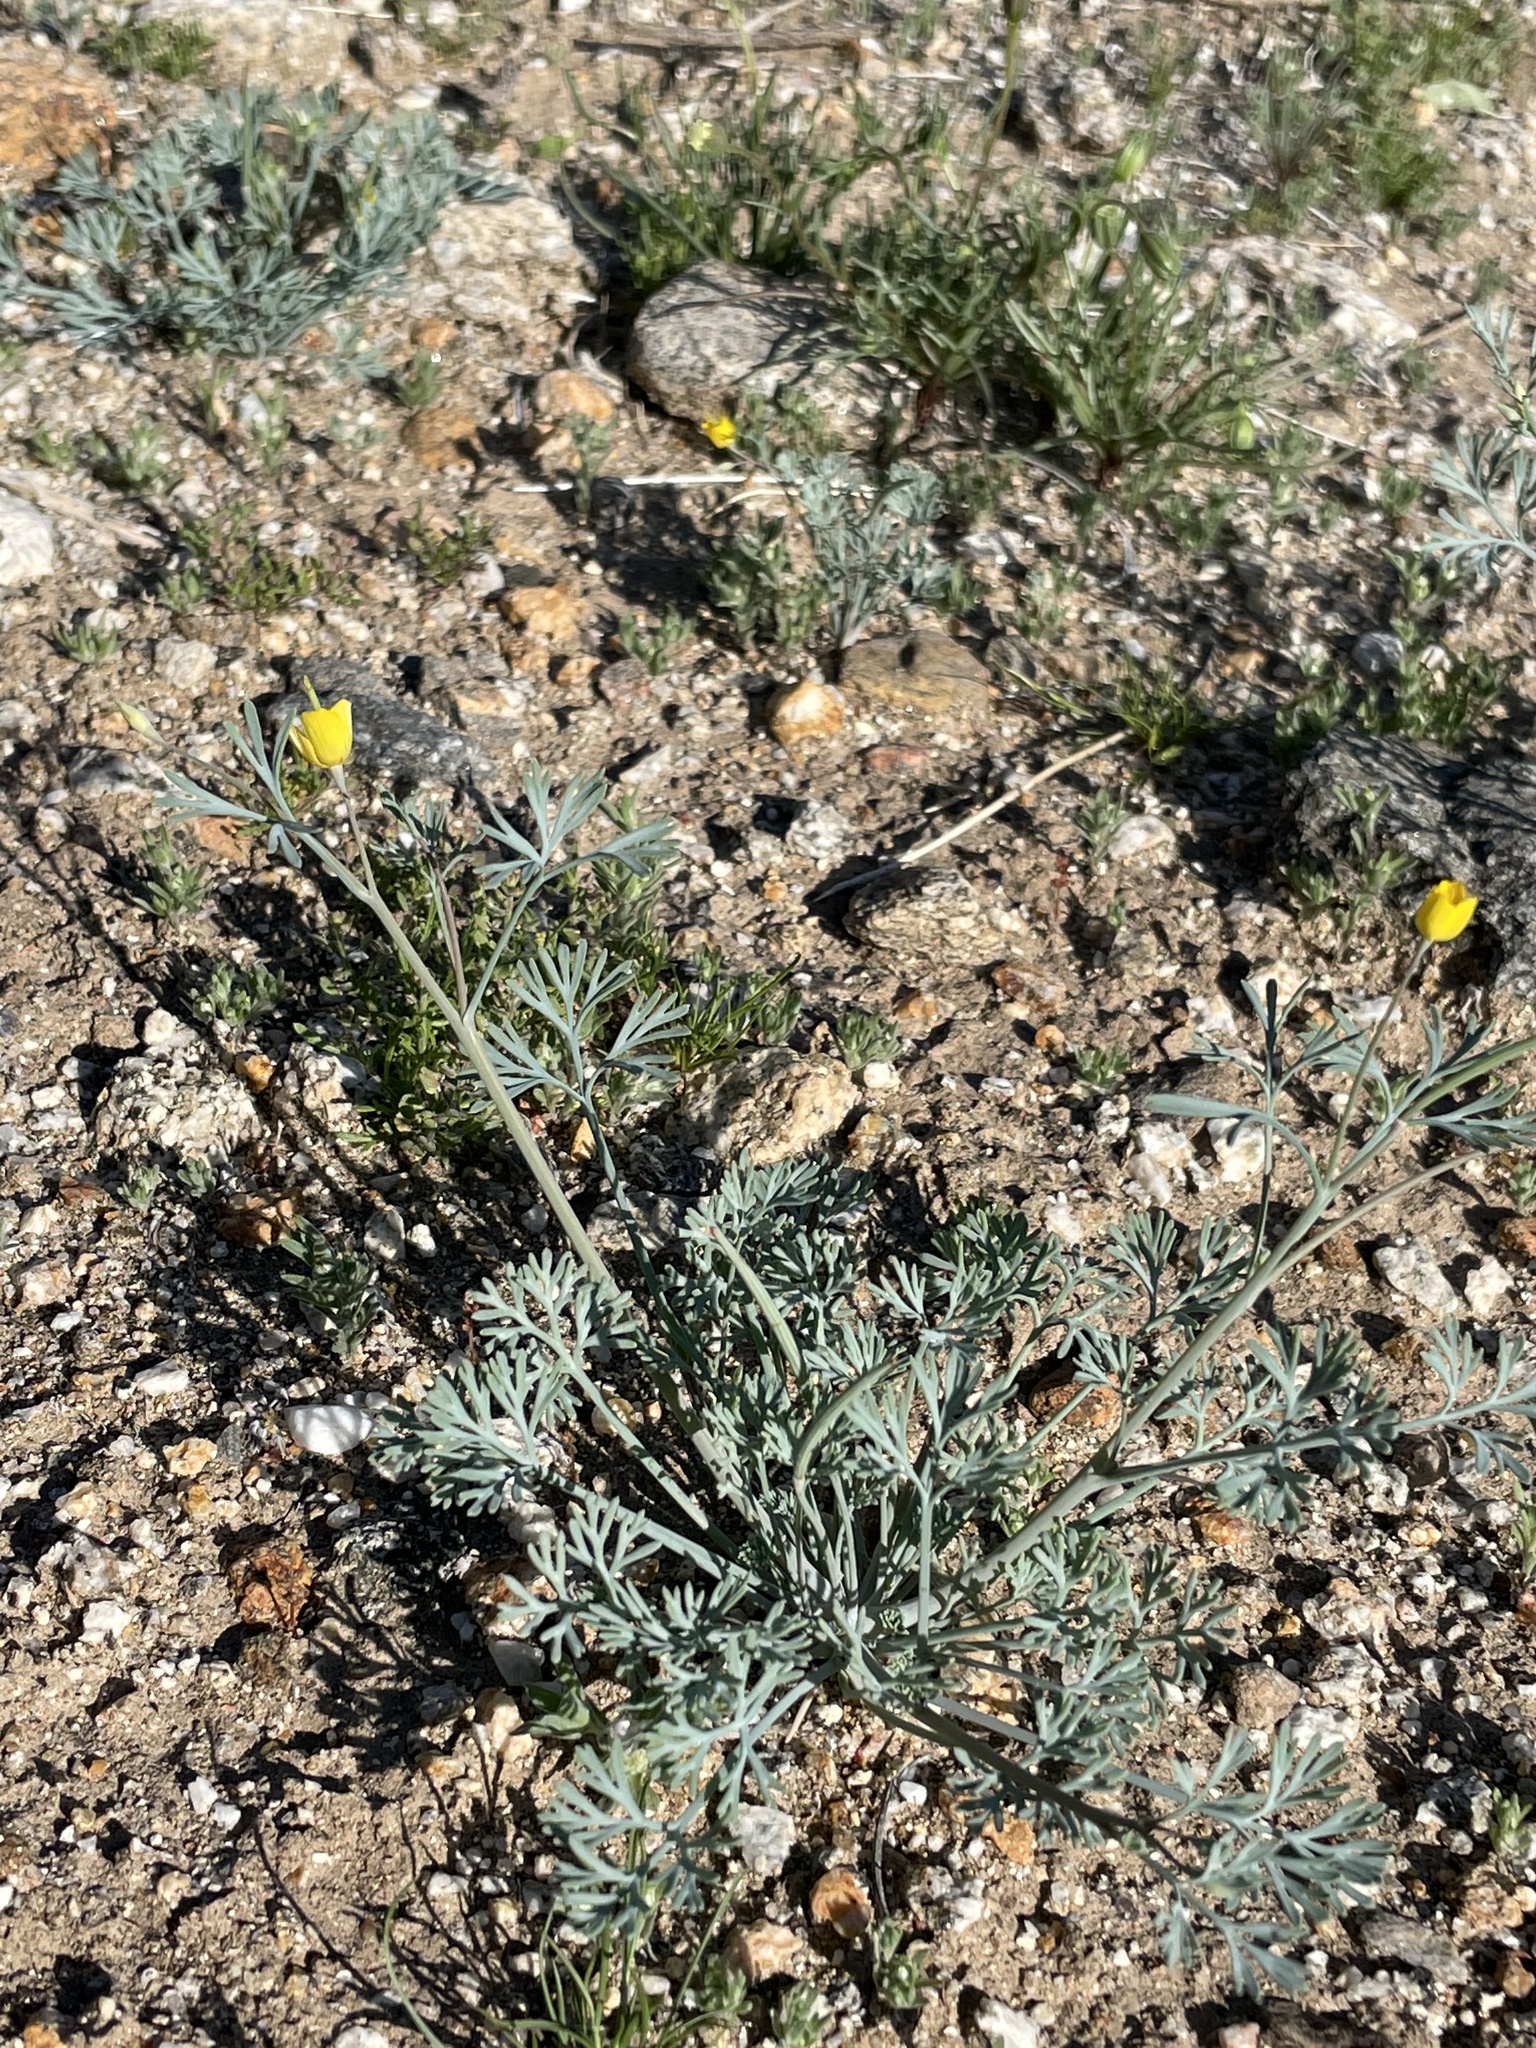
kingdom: Plantae
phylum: Tracheophyta
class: Magnoliopsida
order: Ranunculales
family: Papaveraceae
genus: Eschscholzia
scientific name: Eschscholzia parishii
